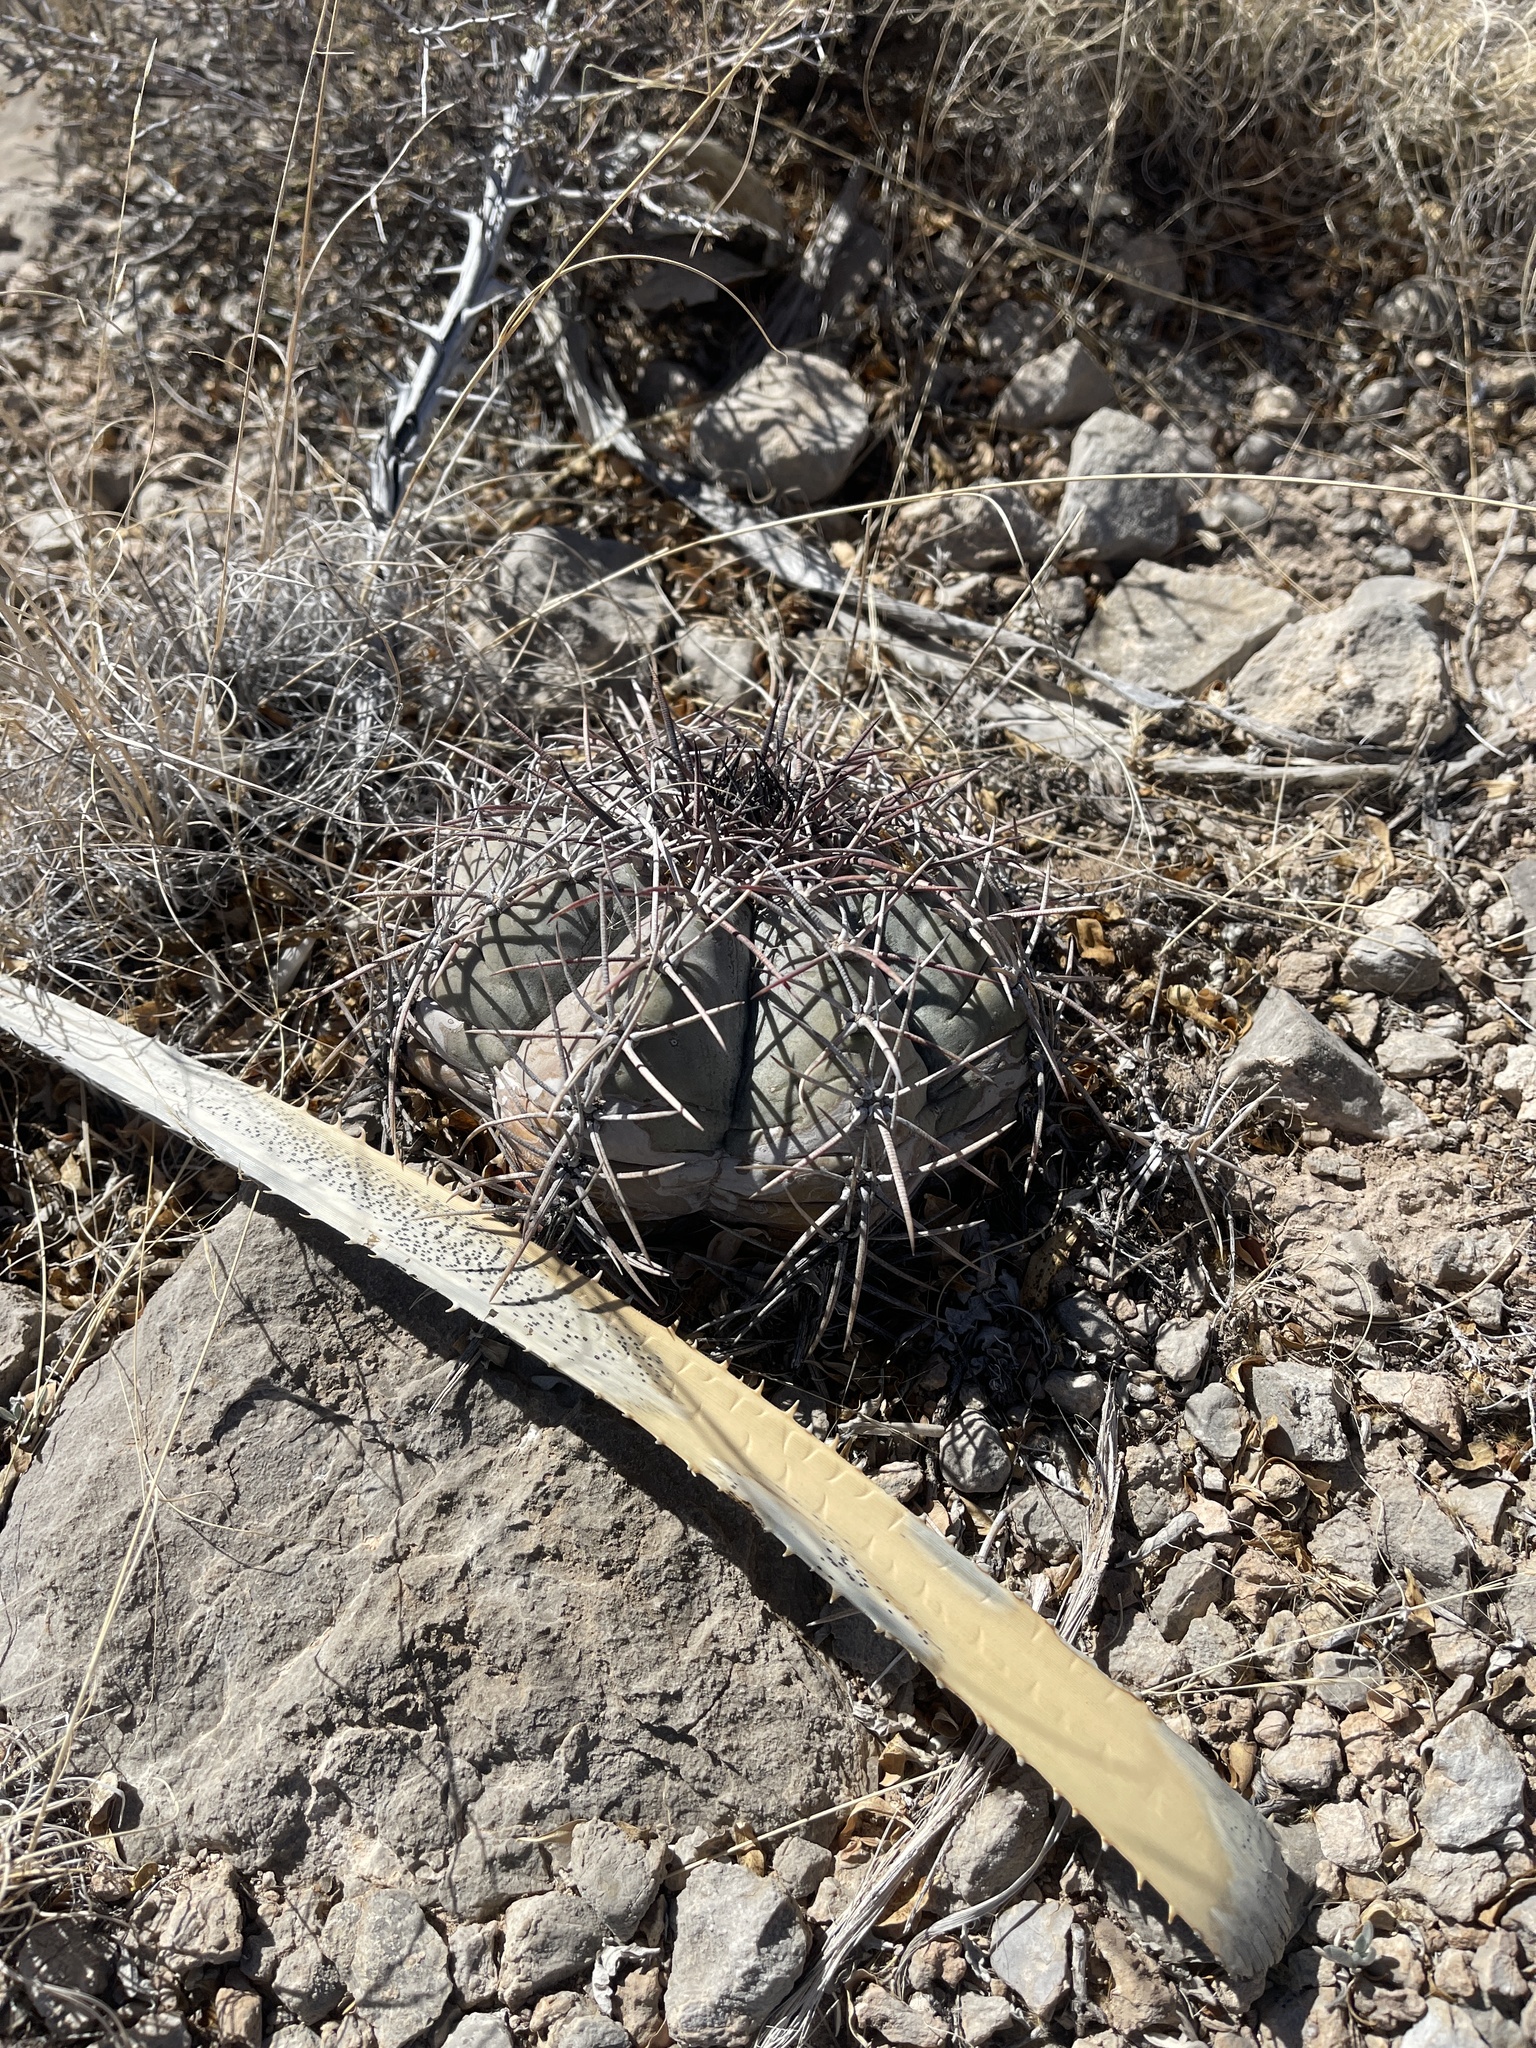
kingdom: Plantae
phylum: Tracheophyta
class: Magnoliopsida
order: Caryophyllales
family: Cactaceae
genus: Echinocactus
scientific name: Echinocactus horizonthalonius
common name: Devilshead
